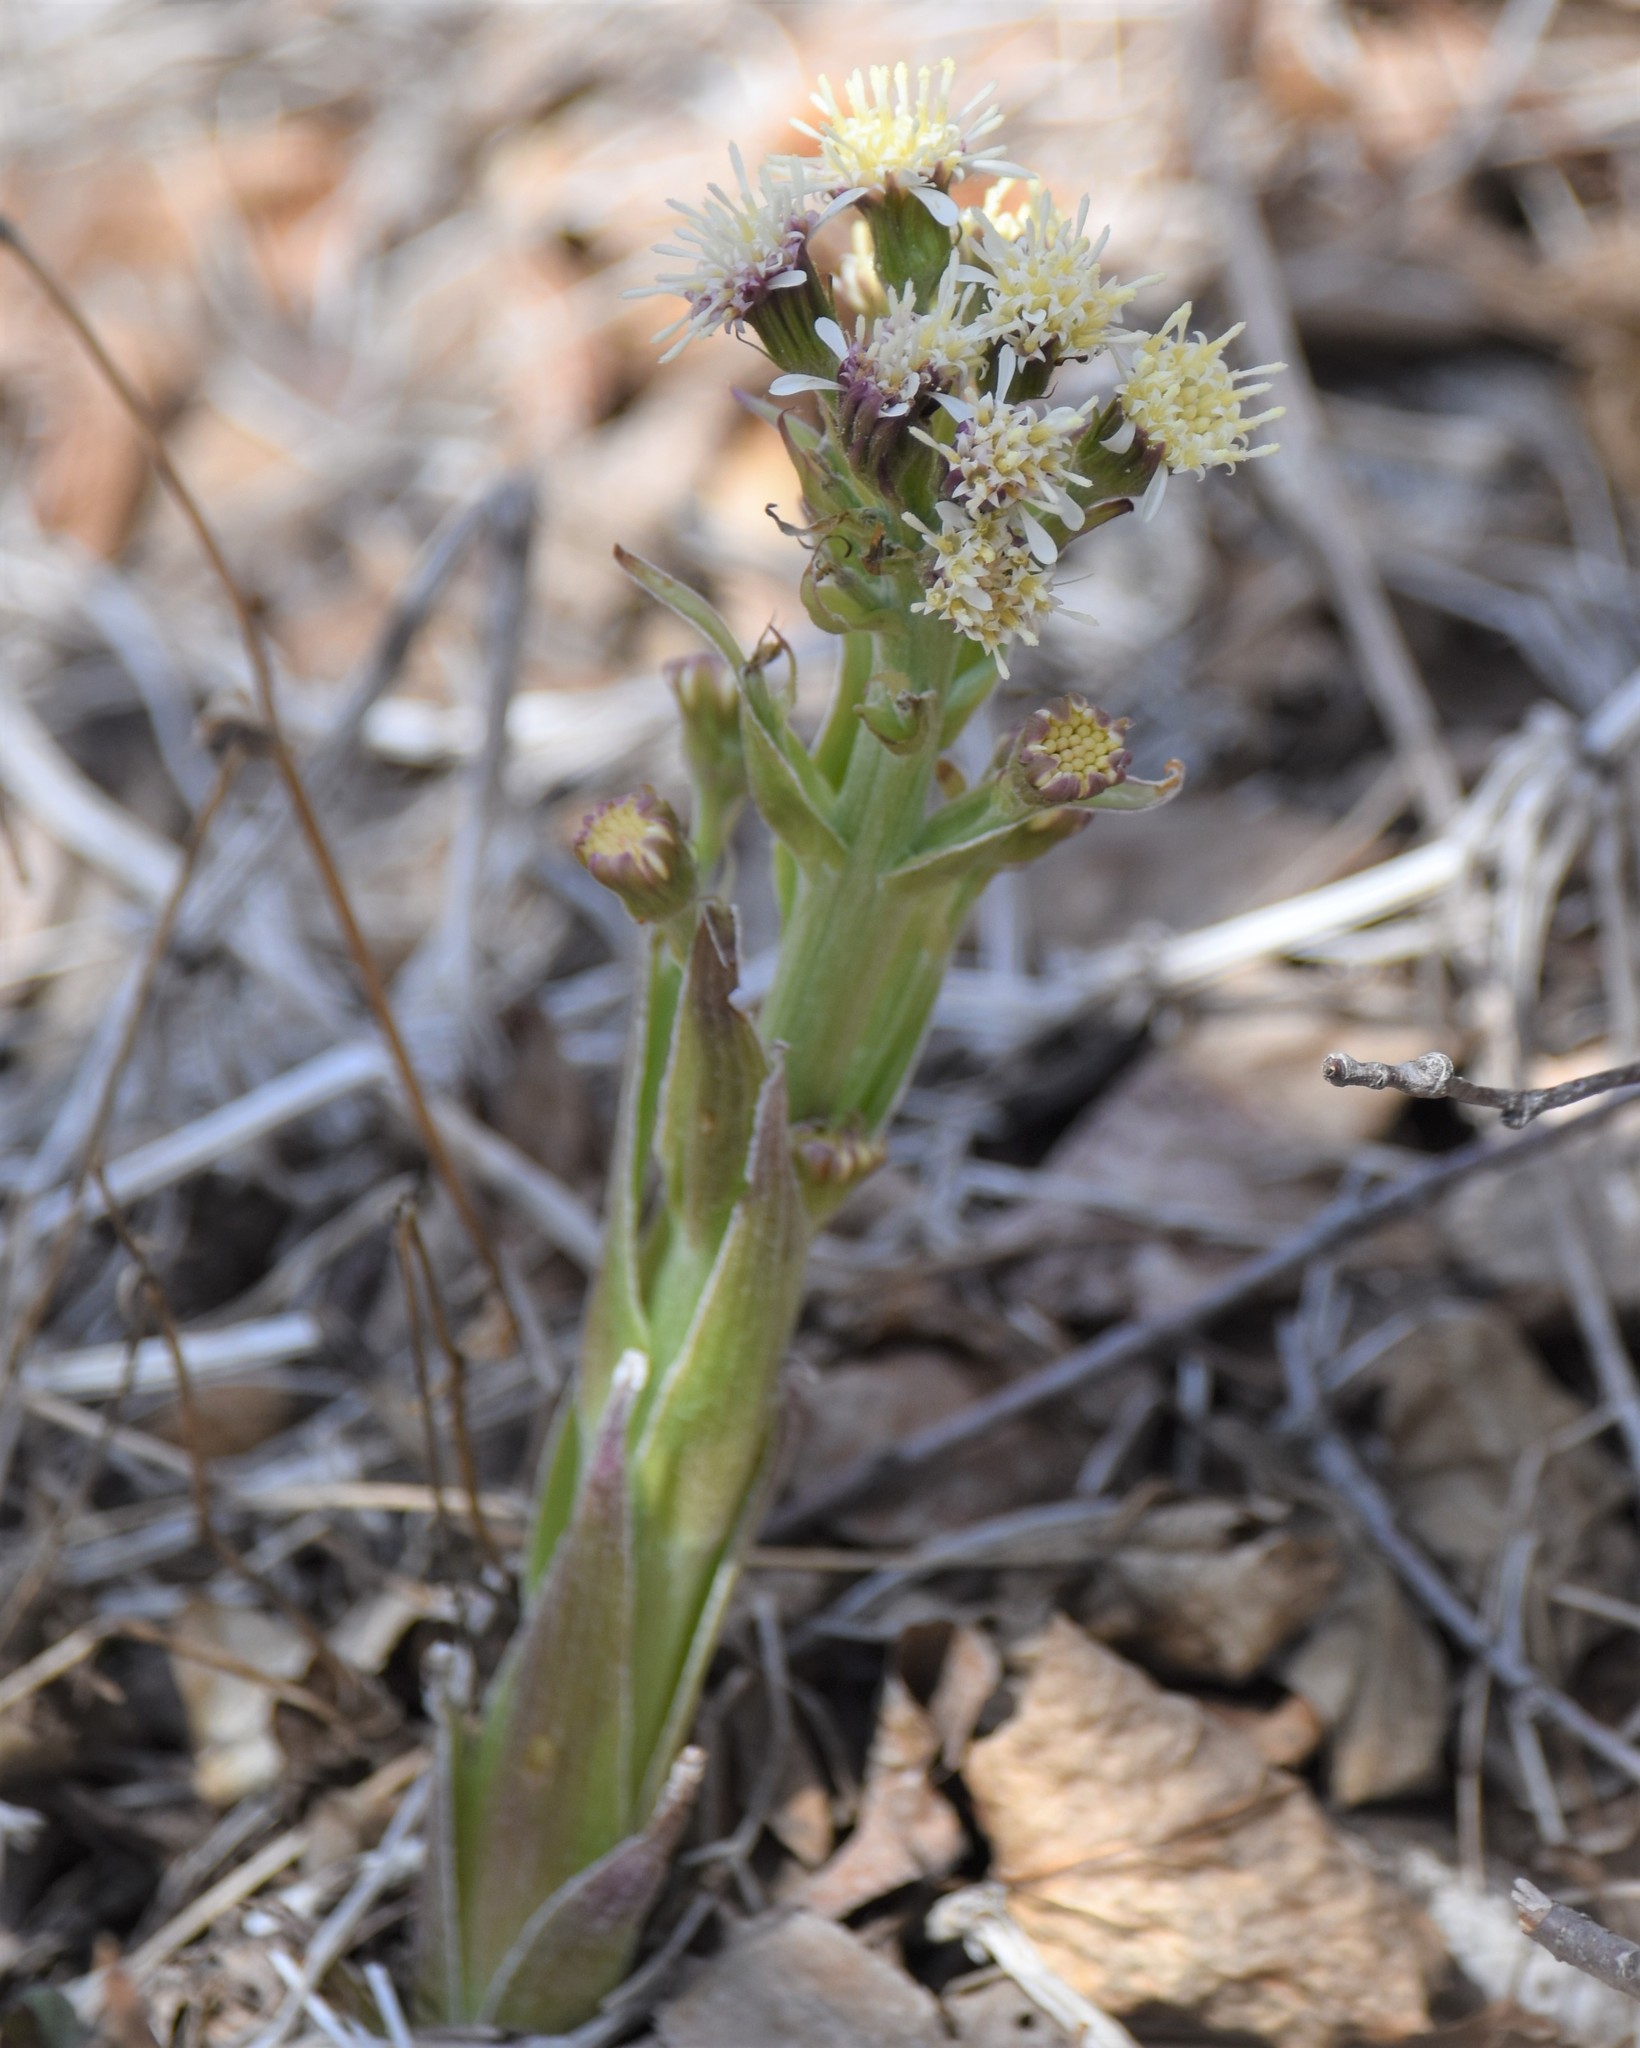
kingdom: Plantae
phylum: Tracheophyta
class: Magnoliopsida
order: Asterales
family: Asteraceae
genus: Petasites
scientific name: Petasites frigidus
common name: Arctic butterbur
